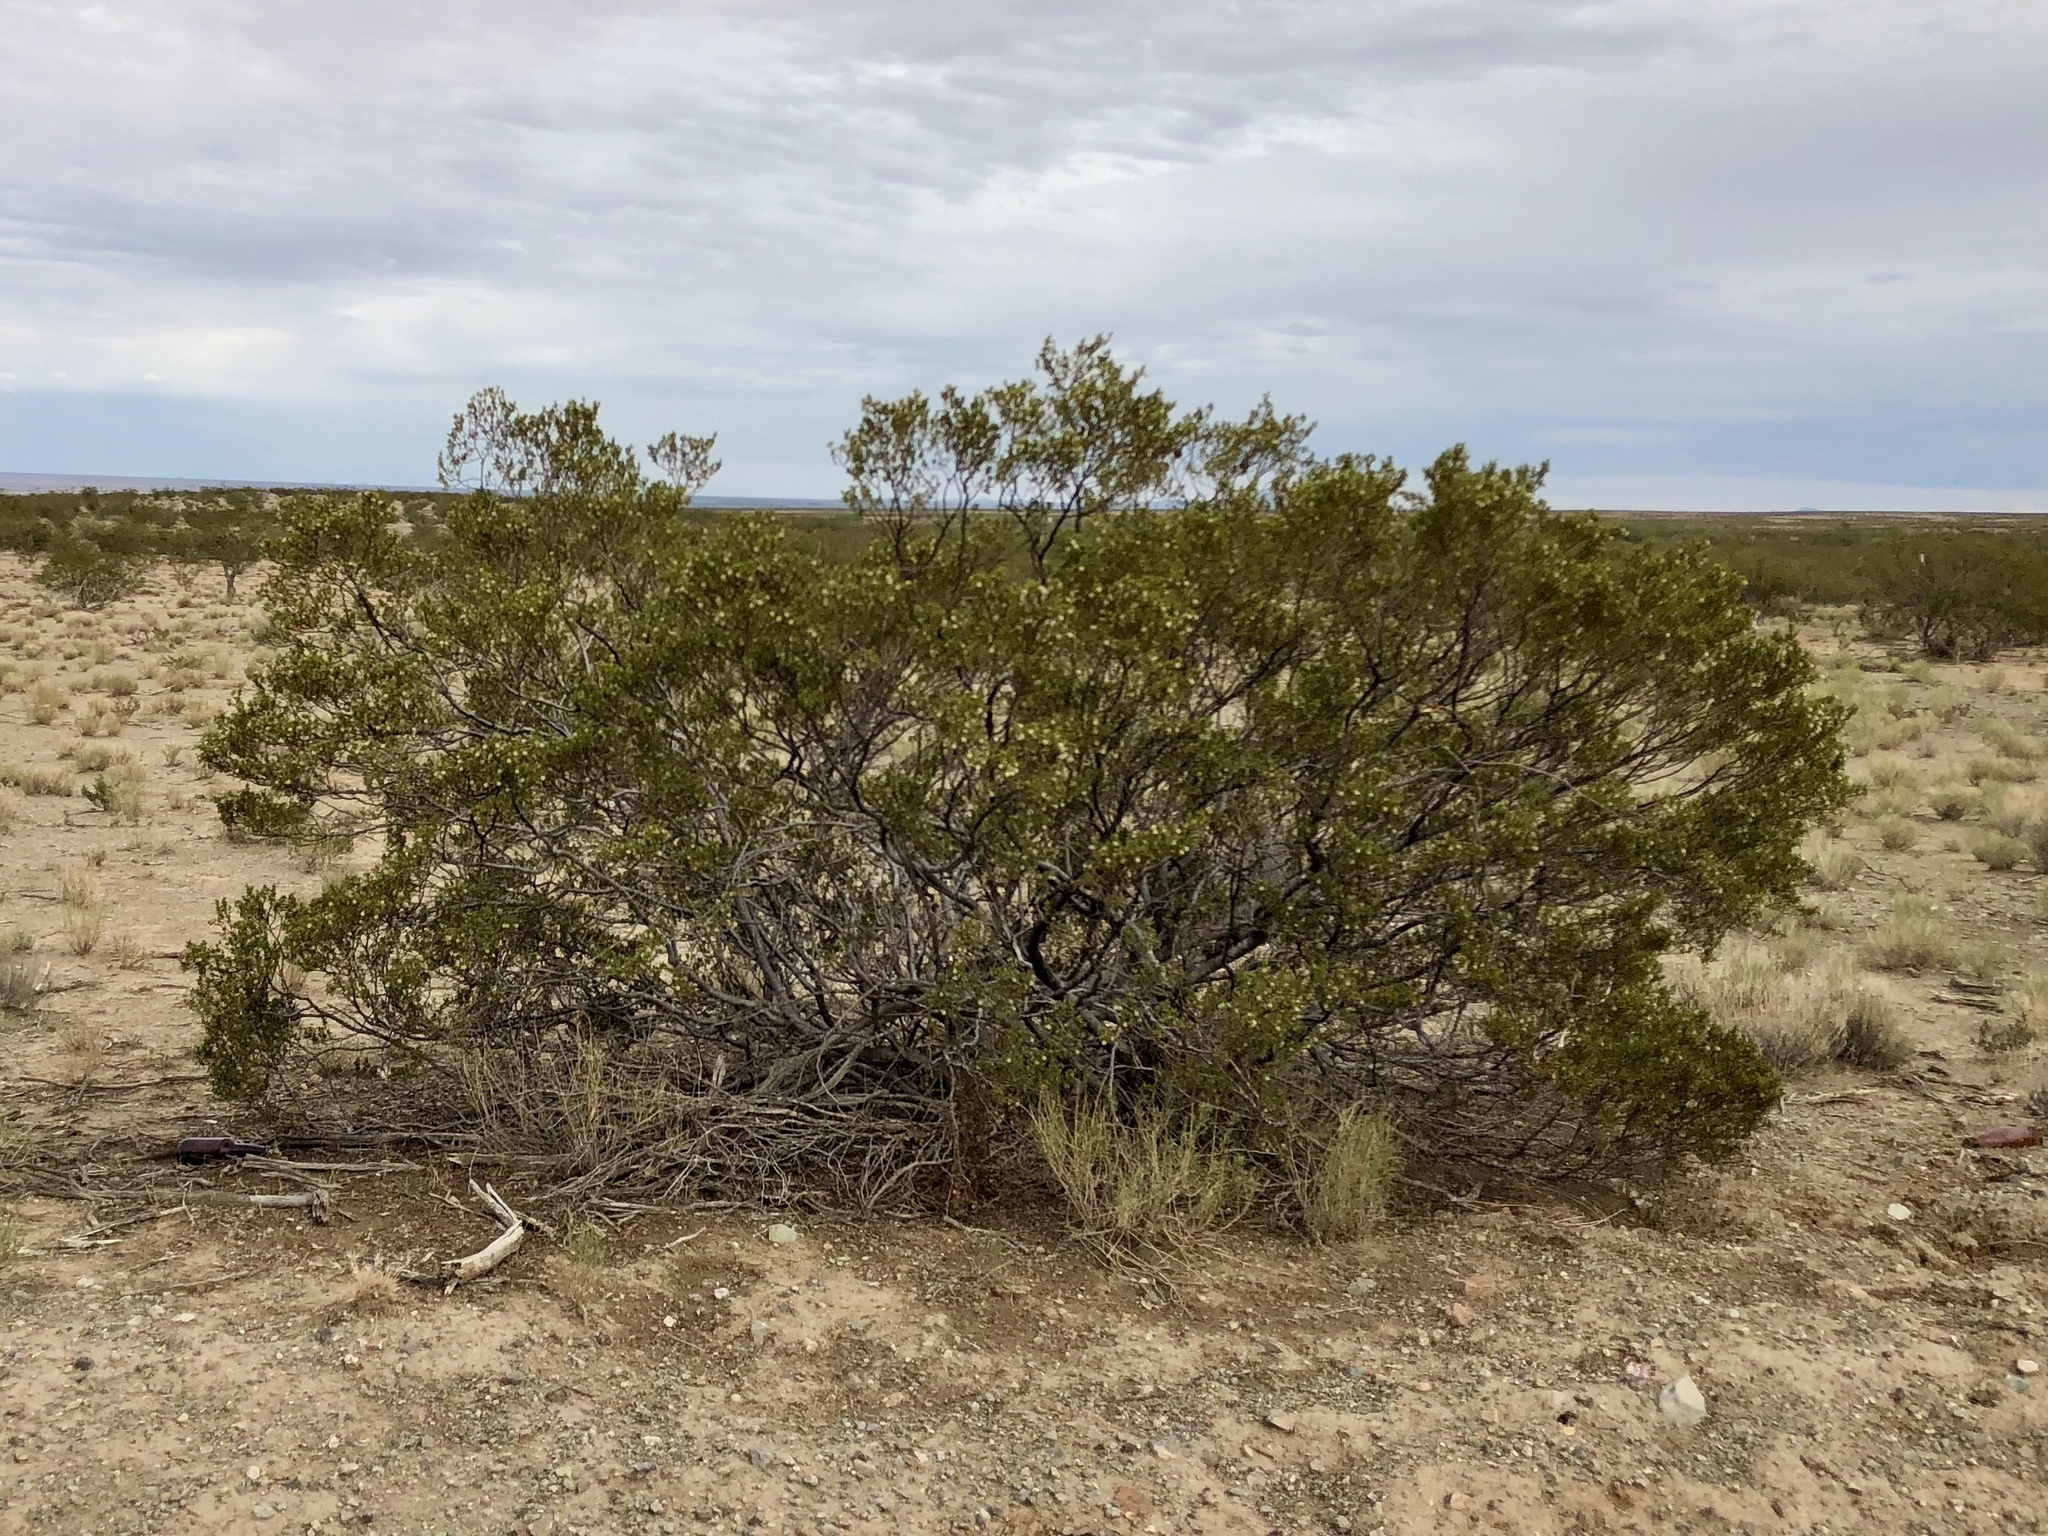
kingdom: Plantae
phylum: Tracheophyta
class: Magnoliopsida
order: Zygophyllales
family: Zygophyllaceae
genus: Larrea
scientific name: Larrea tridentata
